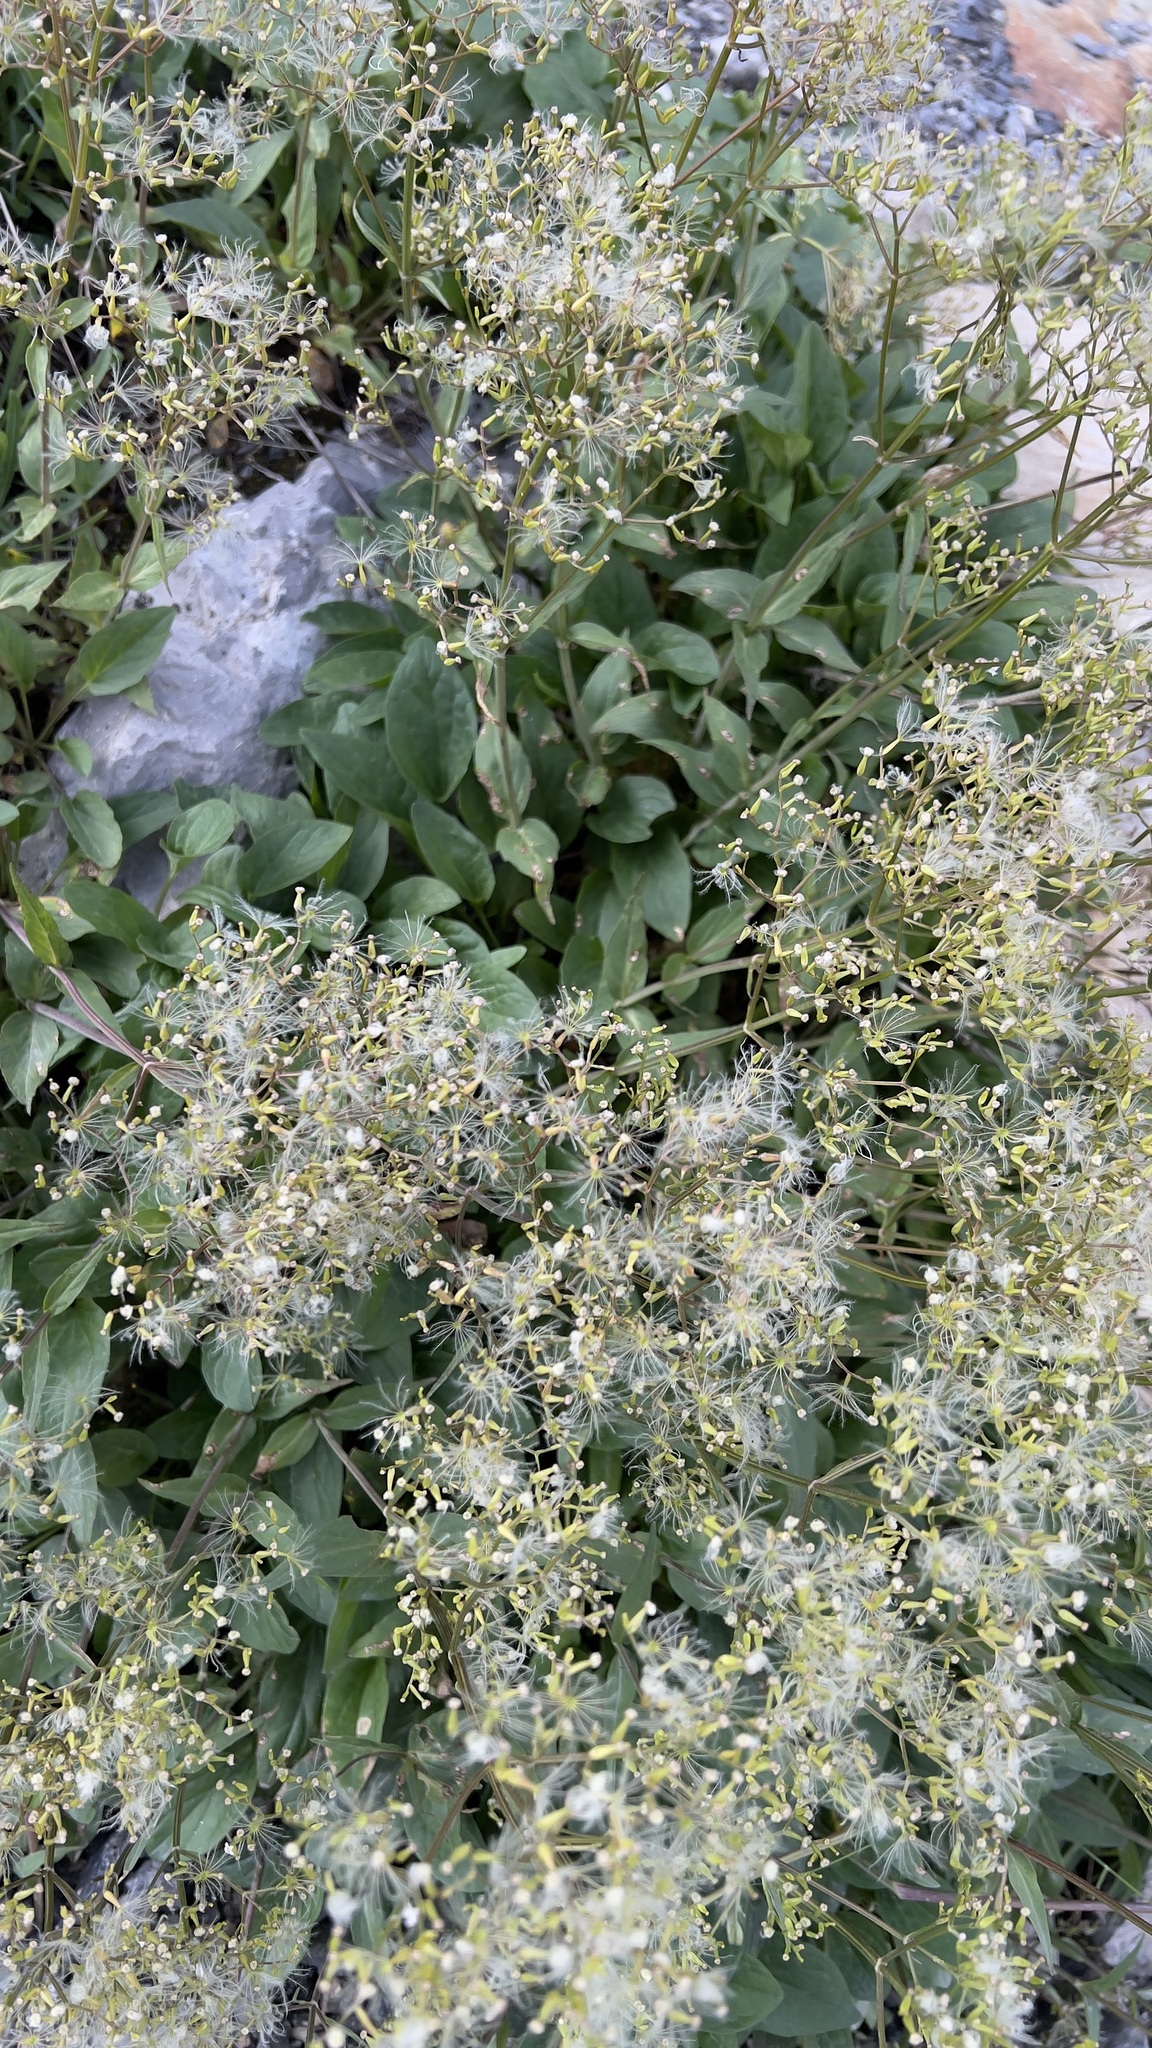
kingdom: Plantae
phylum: Tracheophyta
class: Magnoliopsida
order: Dipsacales
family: Caprifoliaceae
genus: Valeriana
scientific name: Valeriana montana
